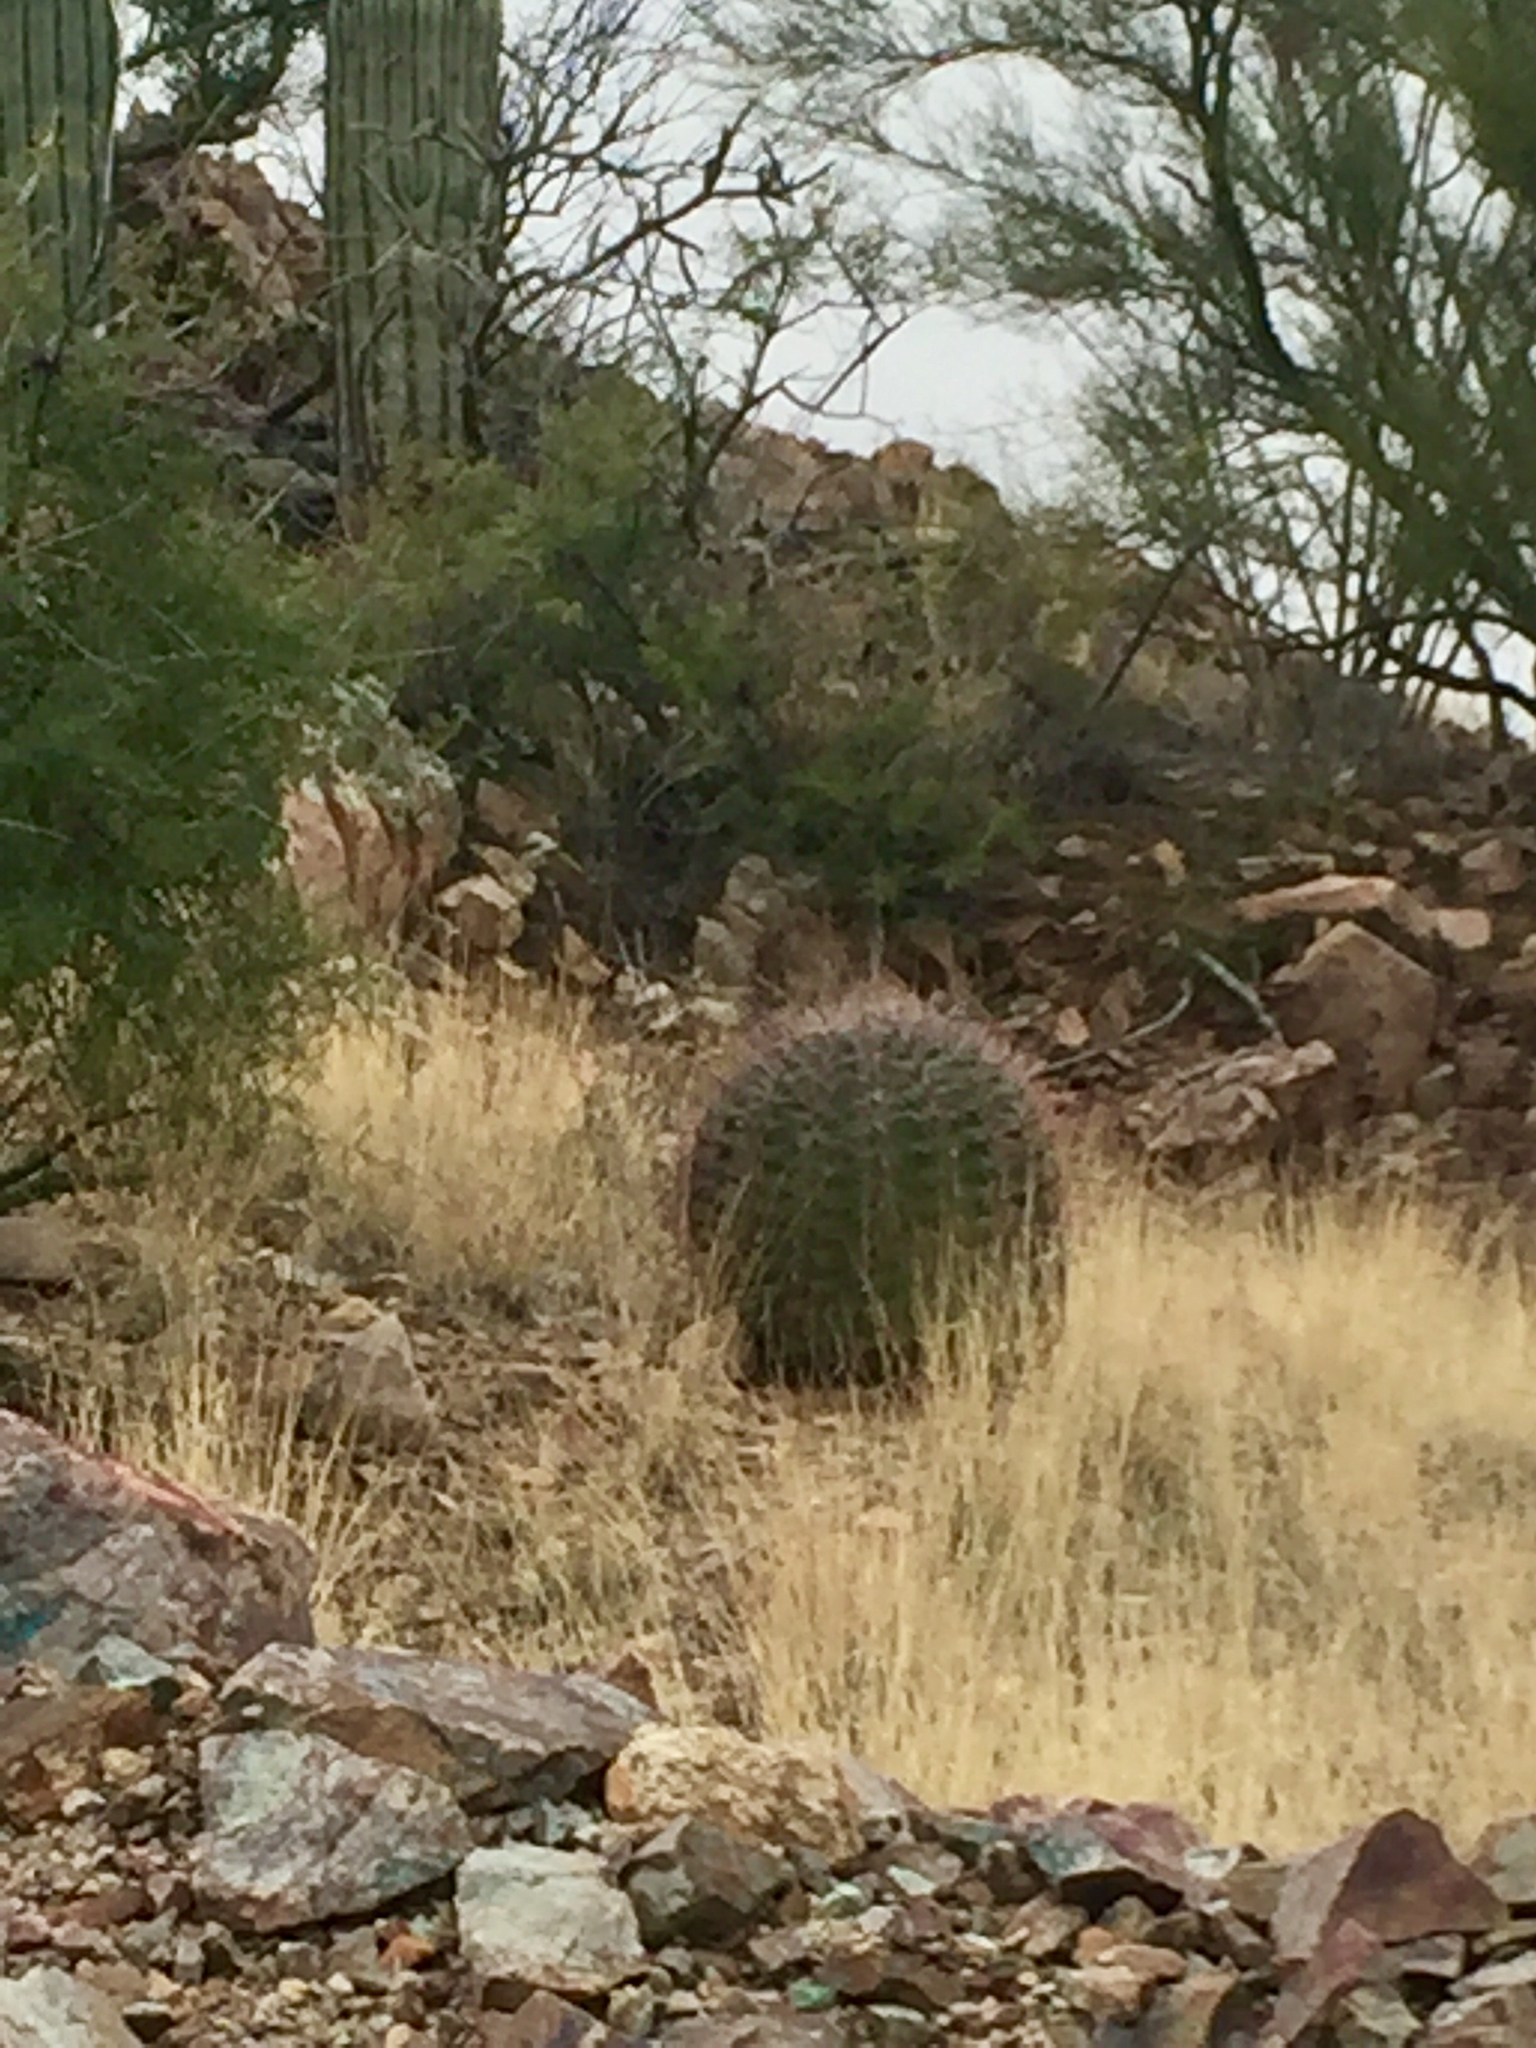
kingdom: Plantae
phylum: Tracheophyta
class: Magnoliopsida
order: Caryophyllales
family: Cactaceae
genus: Ferocactus
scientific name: Ferocactus wislizeni
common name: Candy barrel cactus
